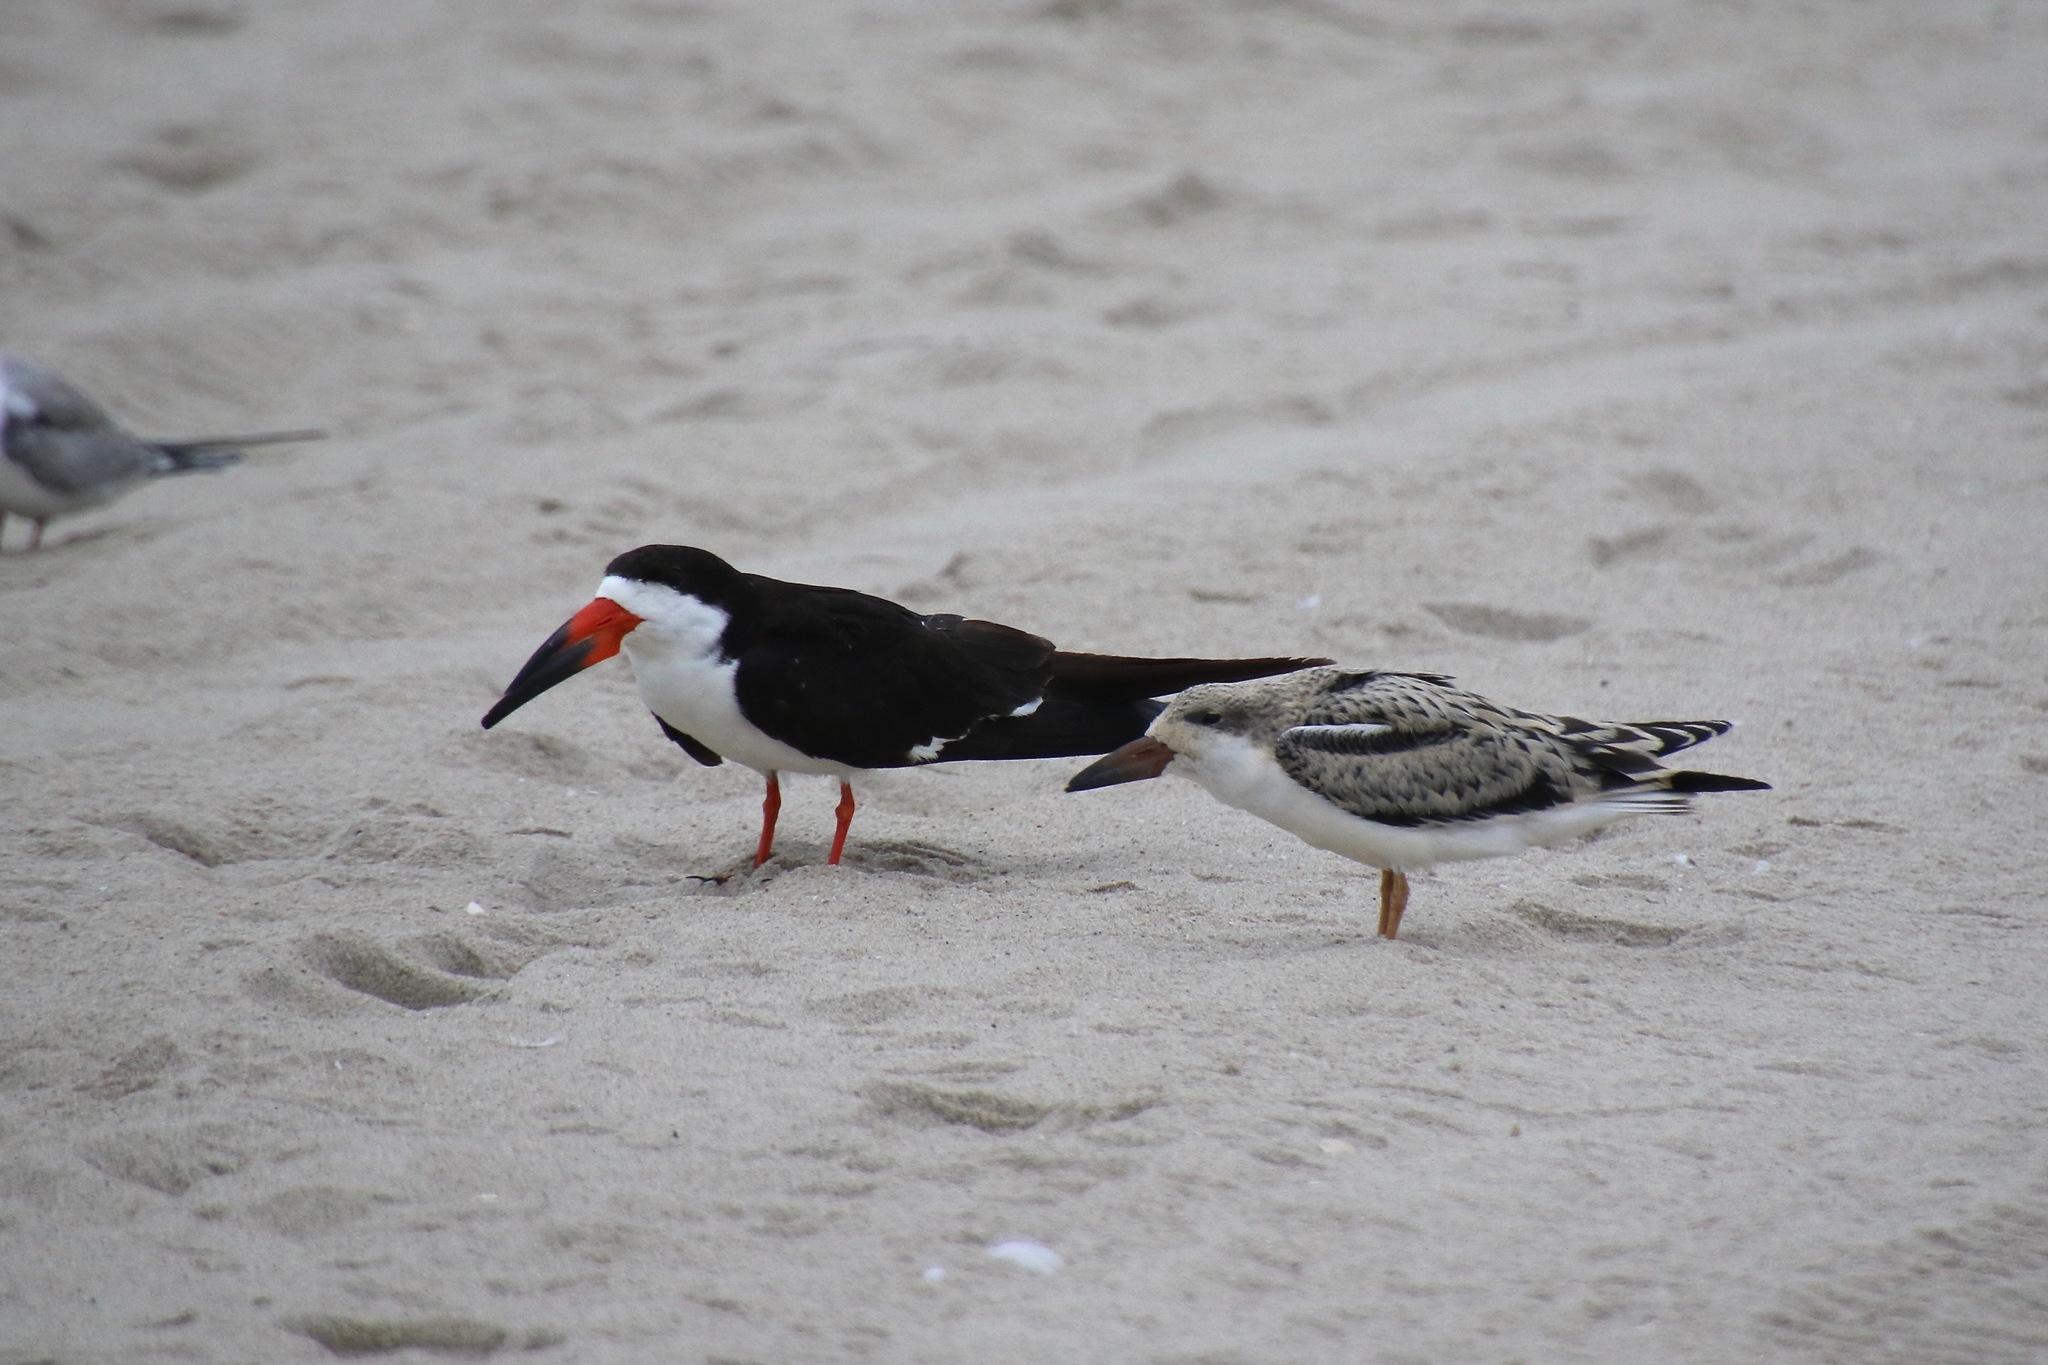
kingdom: Animalia
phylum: Chordata
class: Aves
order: Charadriiformes
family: Laridae
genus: Rynchops
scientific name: Rynchops niger
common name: Black skimmer
